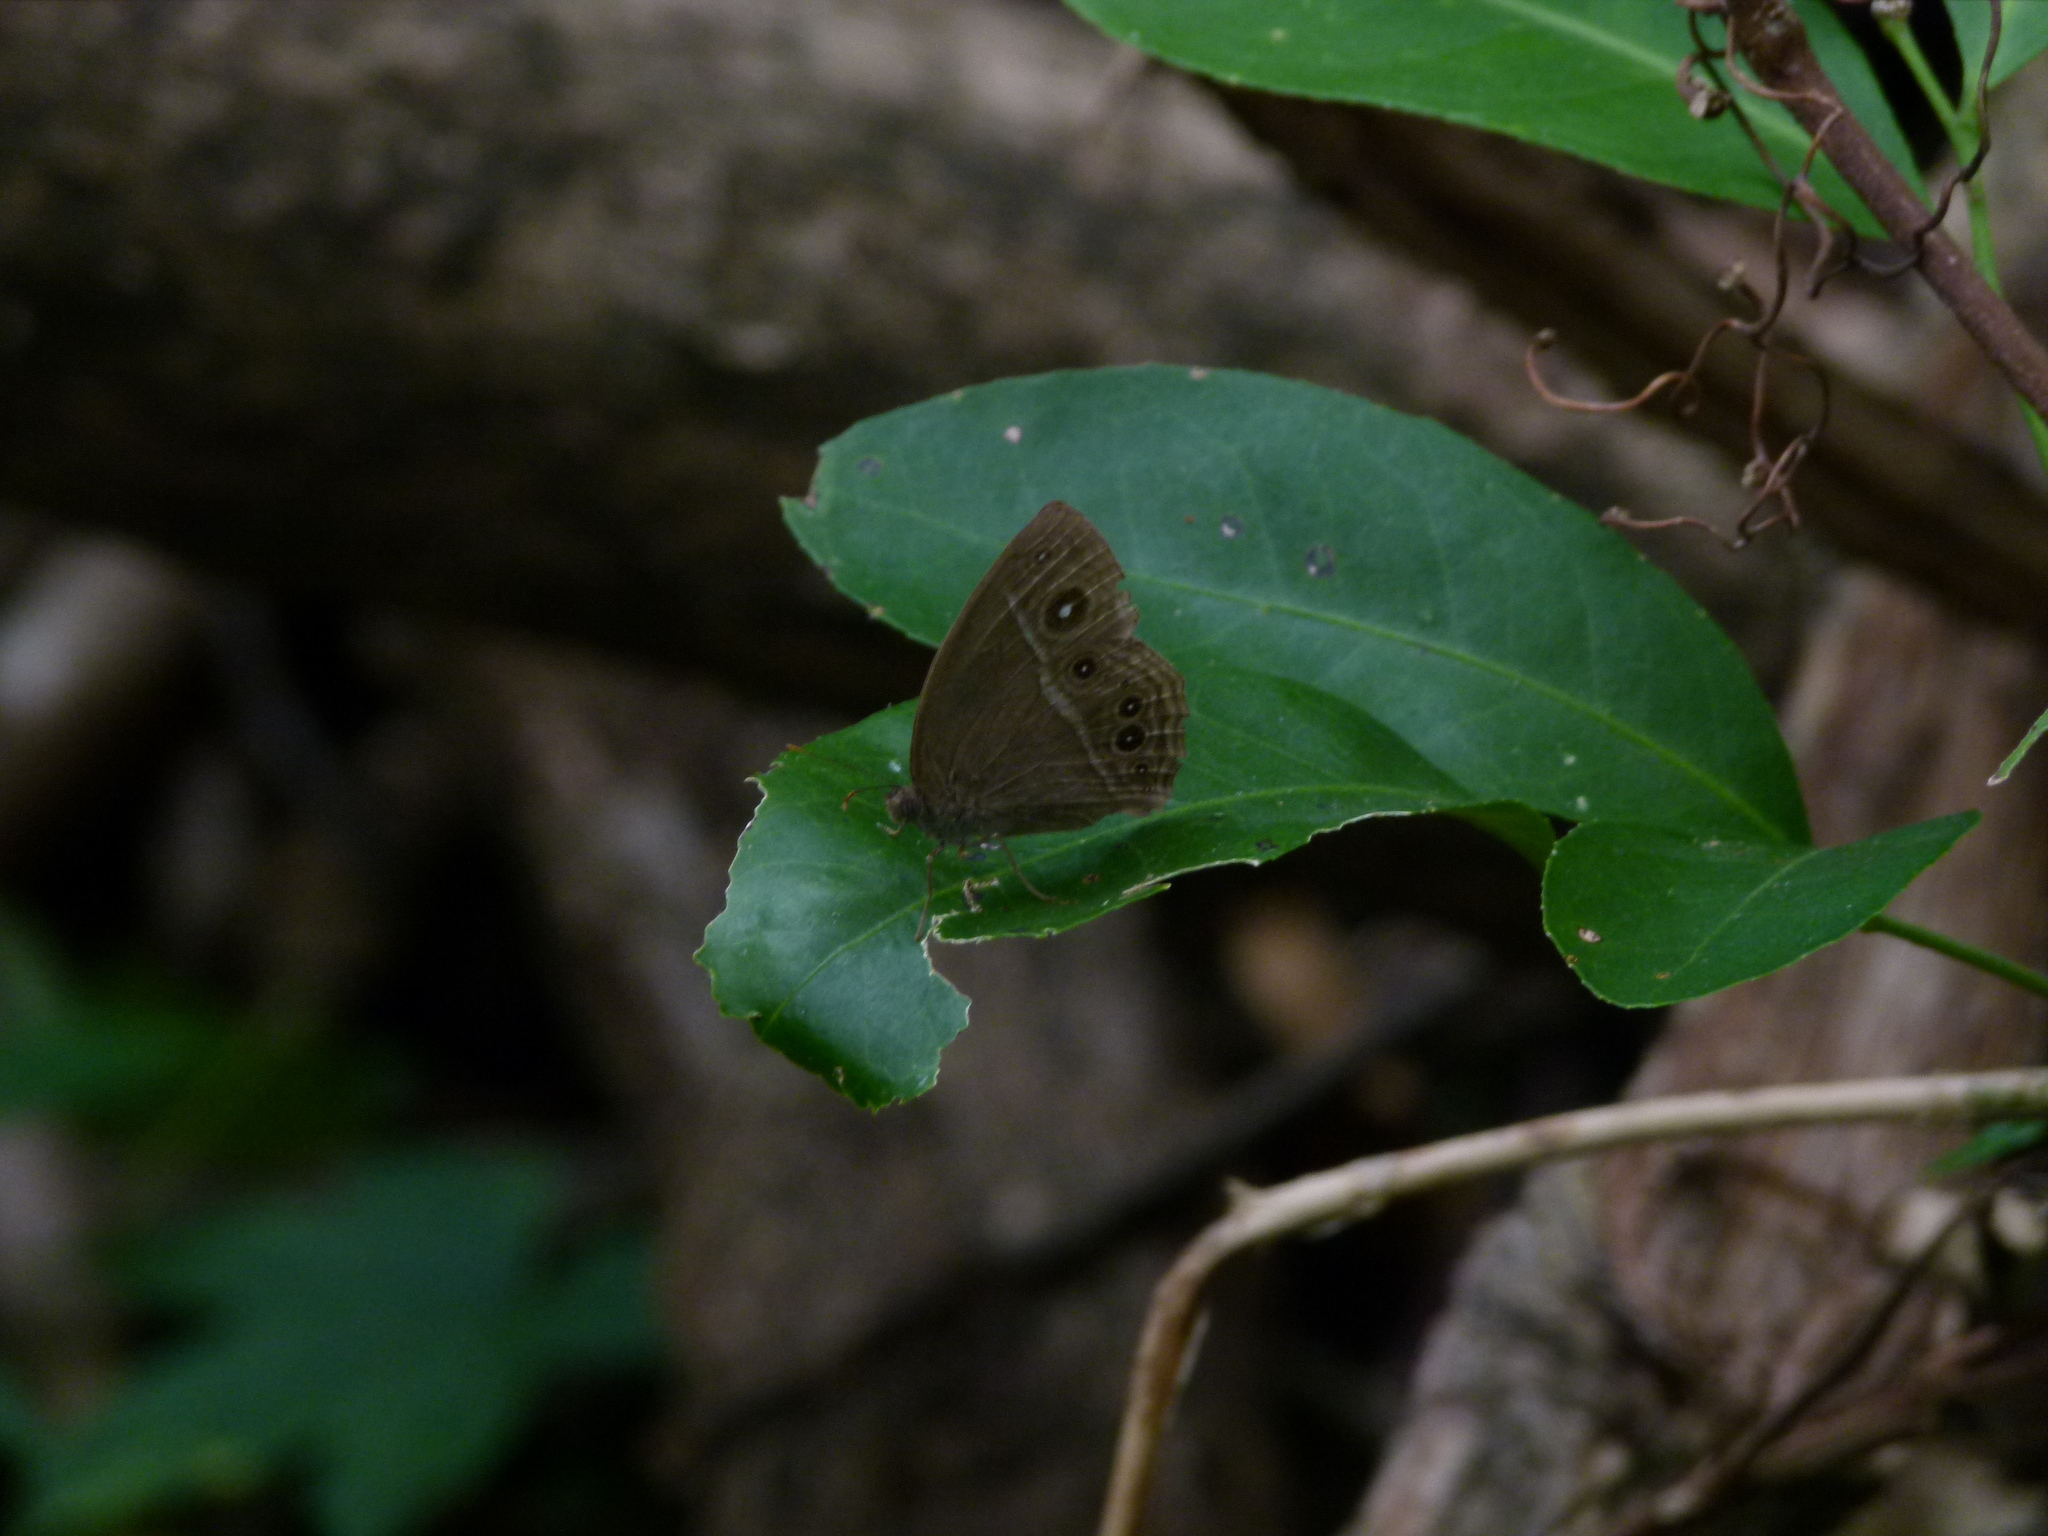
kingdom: Animalia
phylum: Arthropoda
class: Insecta
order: Lepidoptera
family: Nymphalidae
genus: Mycalesis
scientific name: Mycalesis perseus
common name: Dingy bushbrown
